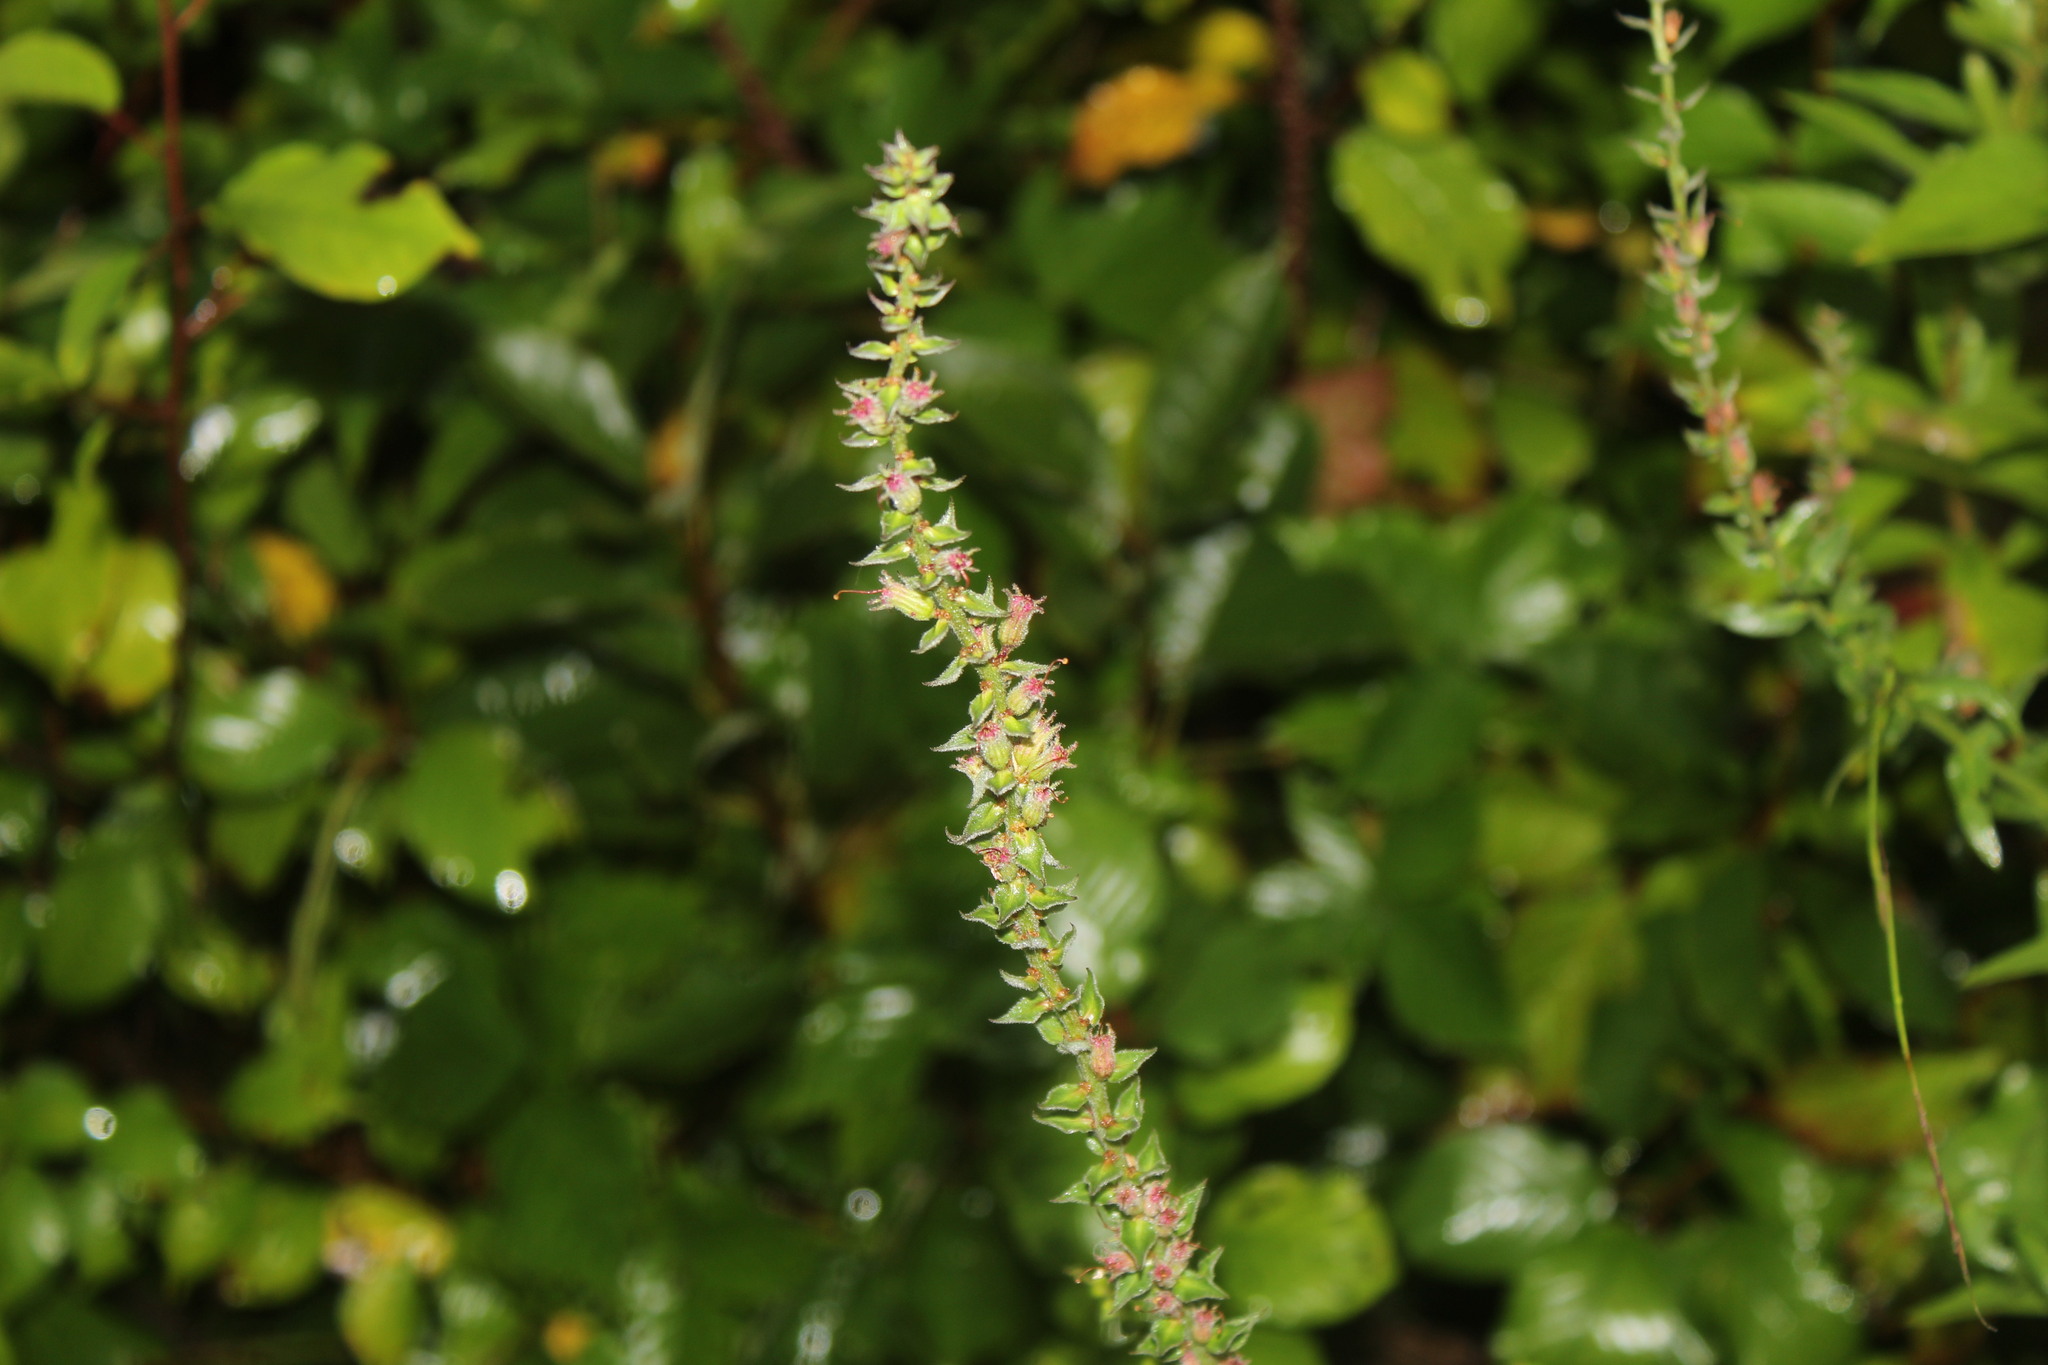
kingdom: Plantae
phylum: Tracheophyta
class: Magnoliopsida
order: Myrtales
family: Lythraceae
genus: Lythrum
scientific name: Lythrum salicaria
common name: Purple loosestrife
